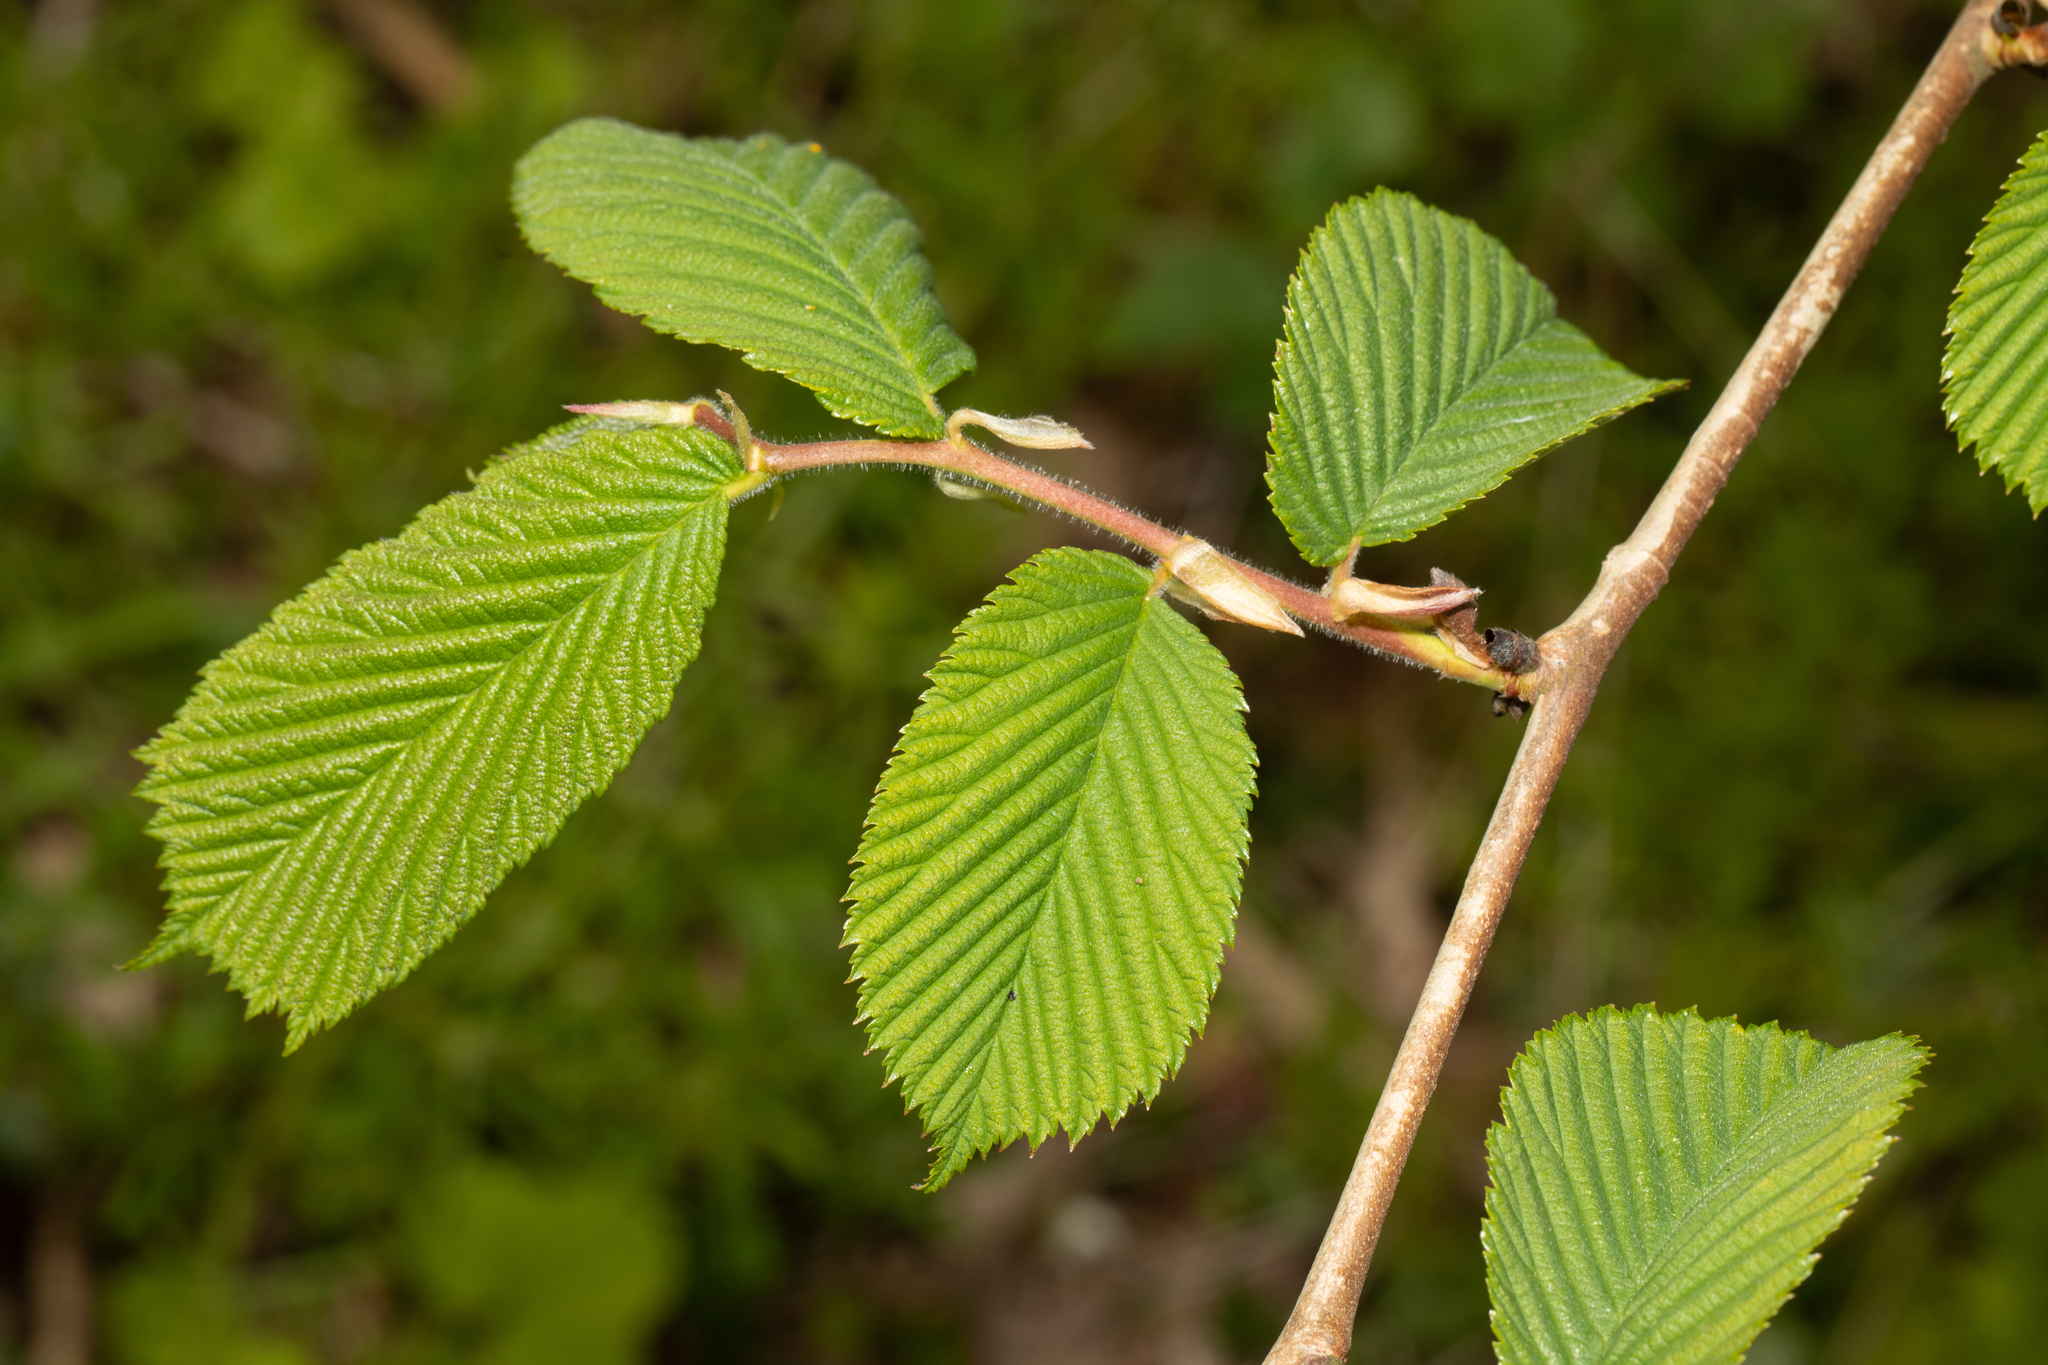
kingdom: Plantae
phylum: Tracheophyta
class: Magnoliopsida
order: Rosales
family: Ulmaceae
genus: Ulmus
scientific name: Ulmus glabra
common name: Wych elm
